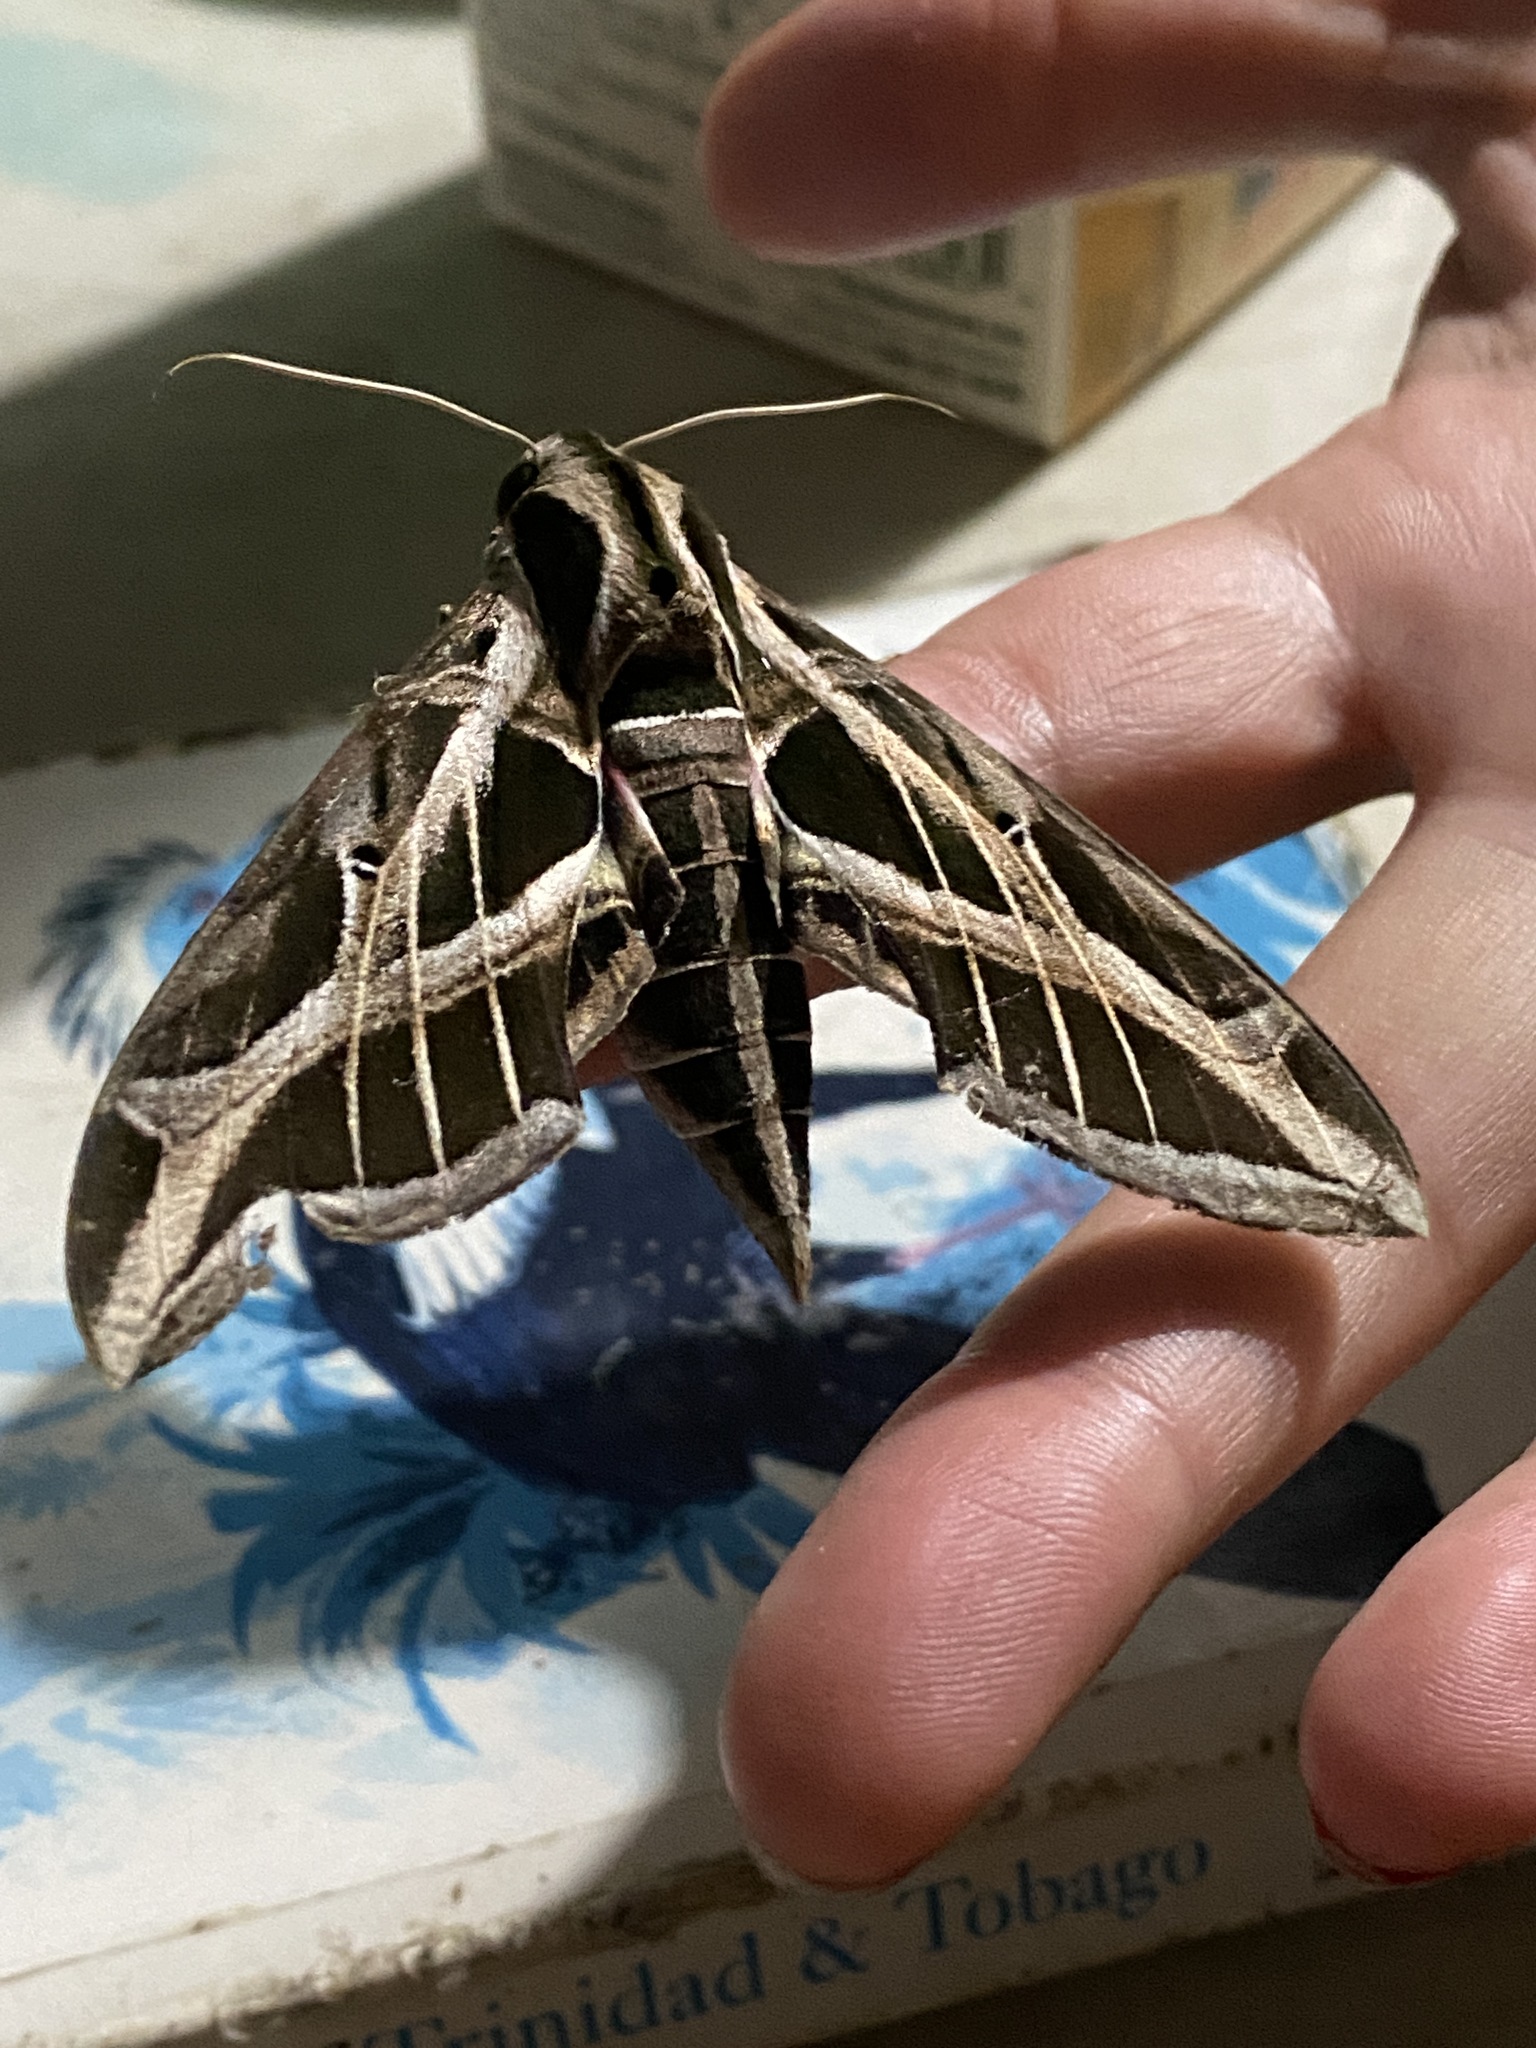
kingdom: Animalia
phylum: Arthropoda
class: Insecta
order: Lepidoptera
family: Sphingidae
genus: Eumorpha
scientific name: Eumorpha vitis
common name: Vine sphinx
